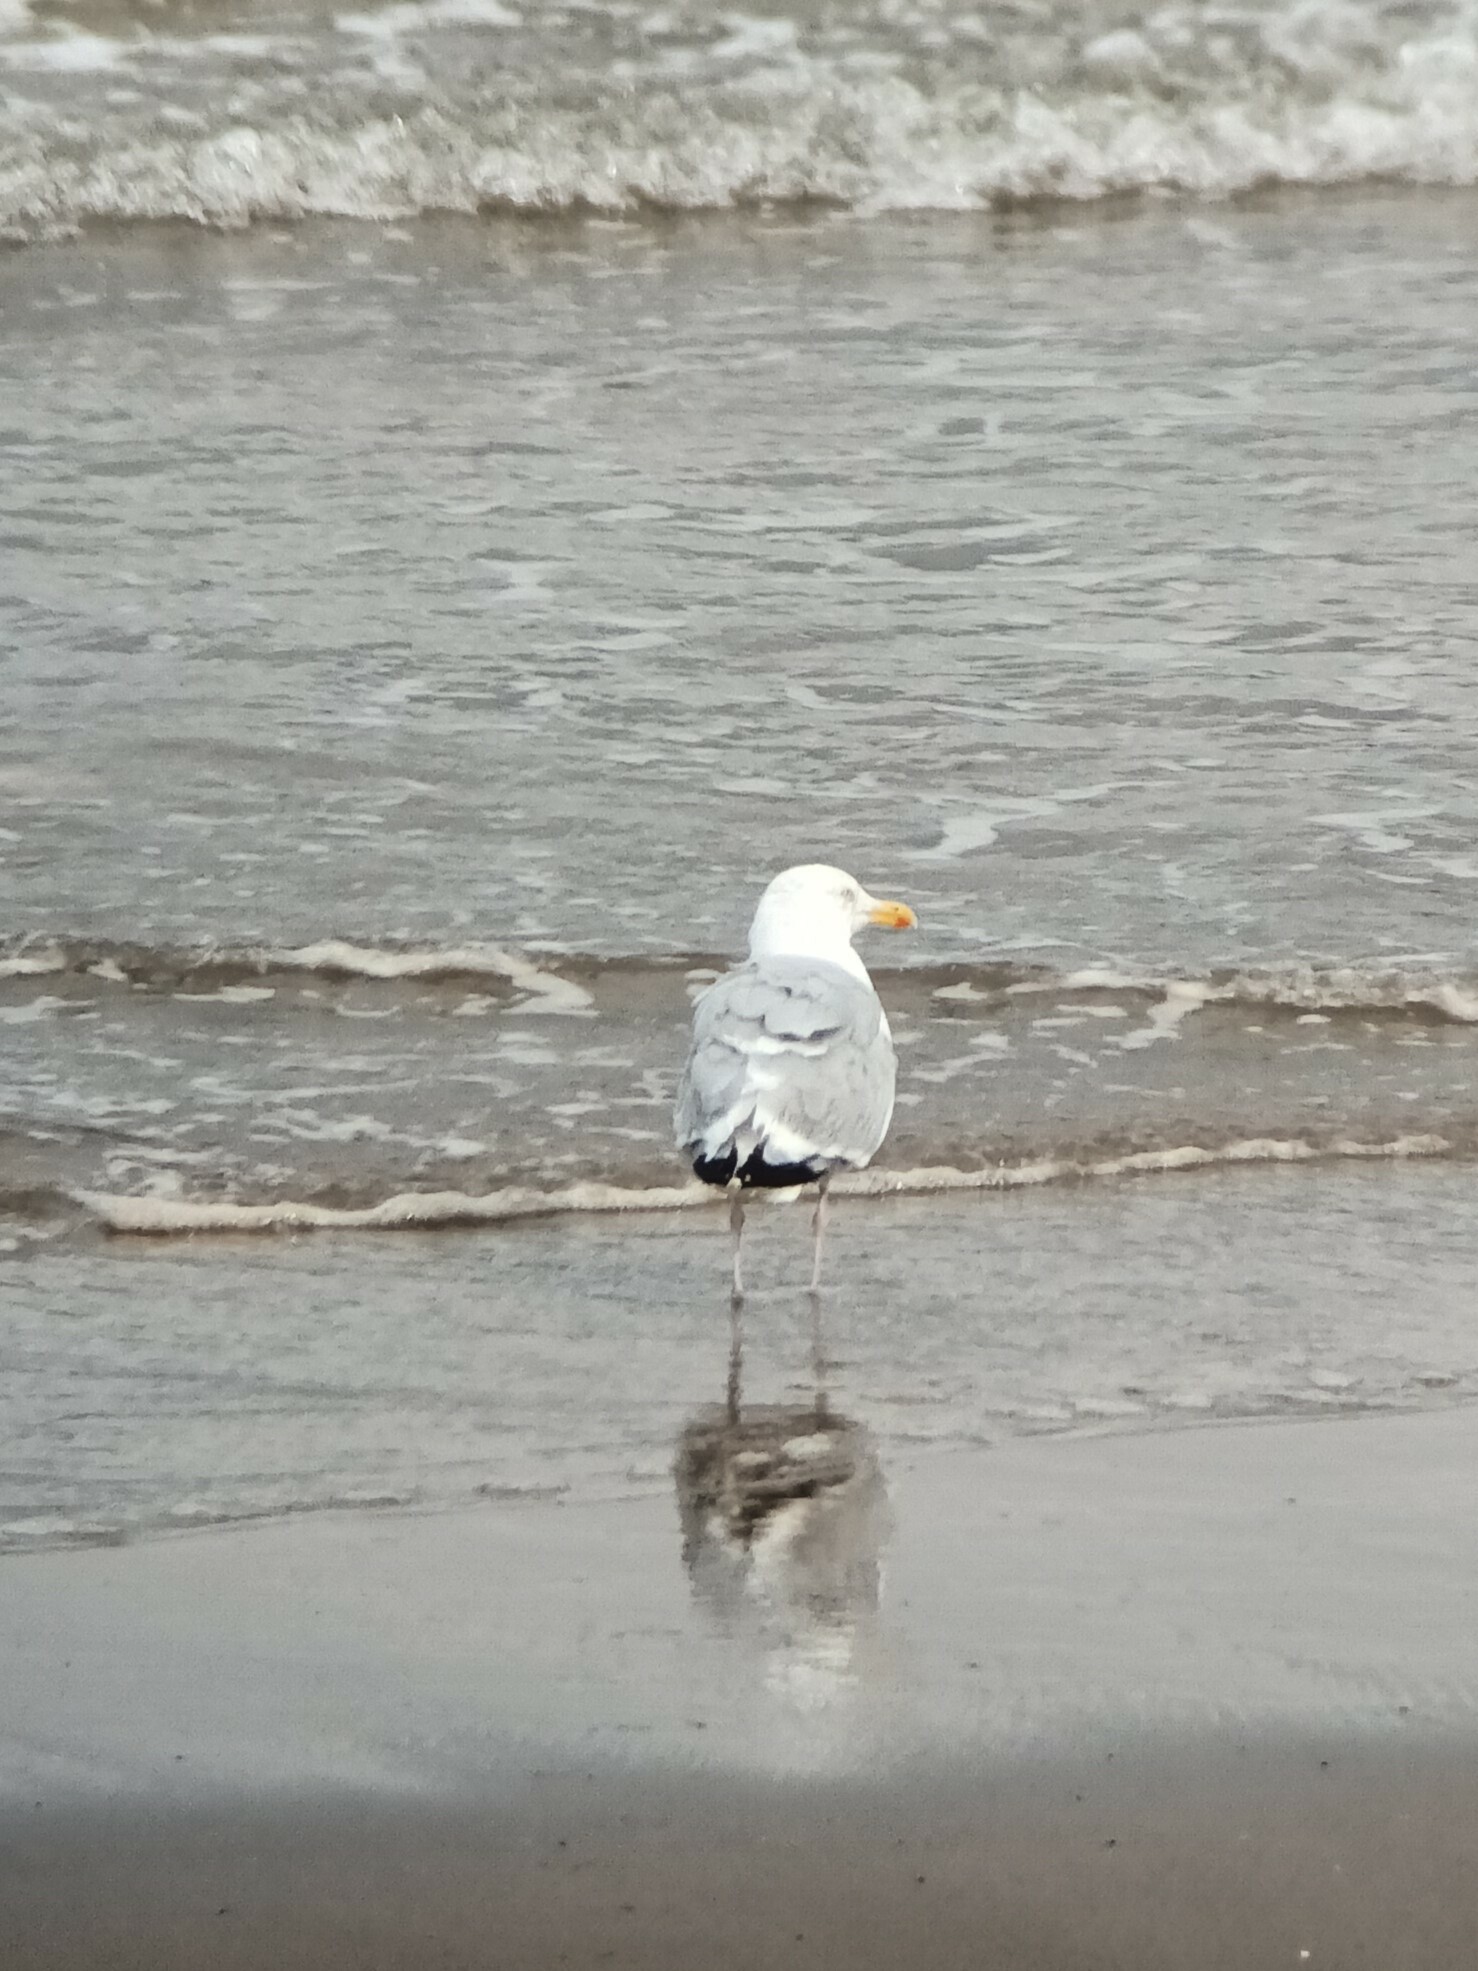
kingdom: Animalia
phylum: Chordata
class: Aves
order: Charadriiformes
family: Laridae
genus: Larus
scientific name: Larus argentatus
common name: Herring gull
